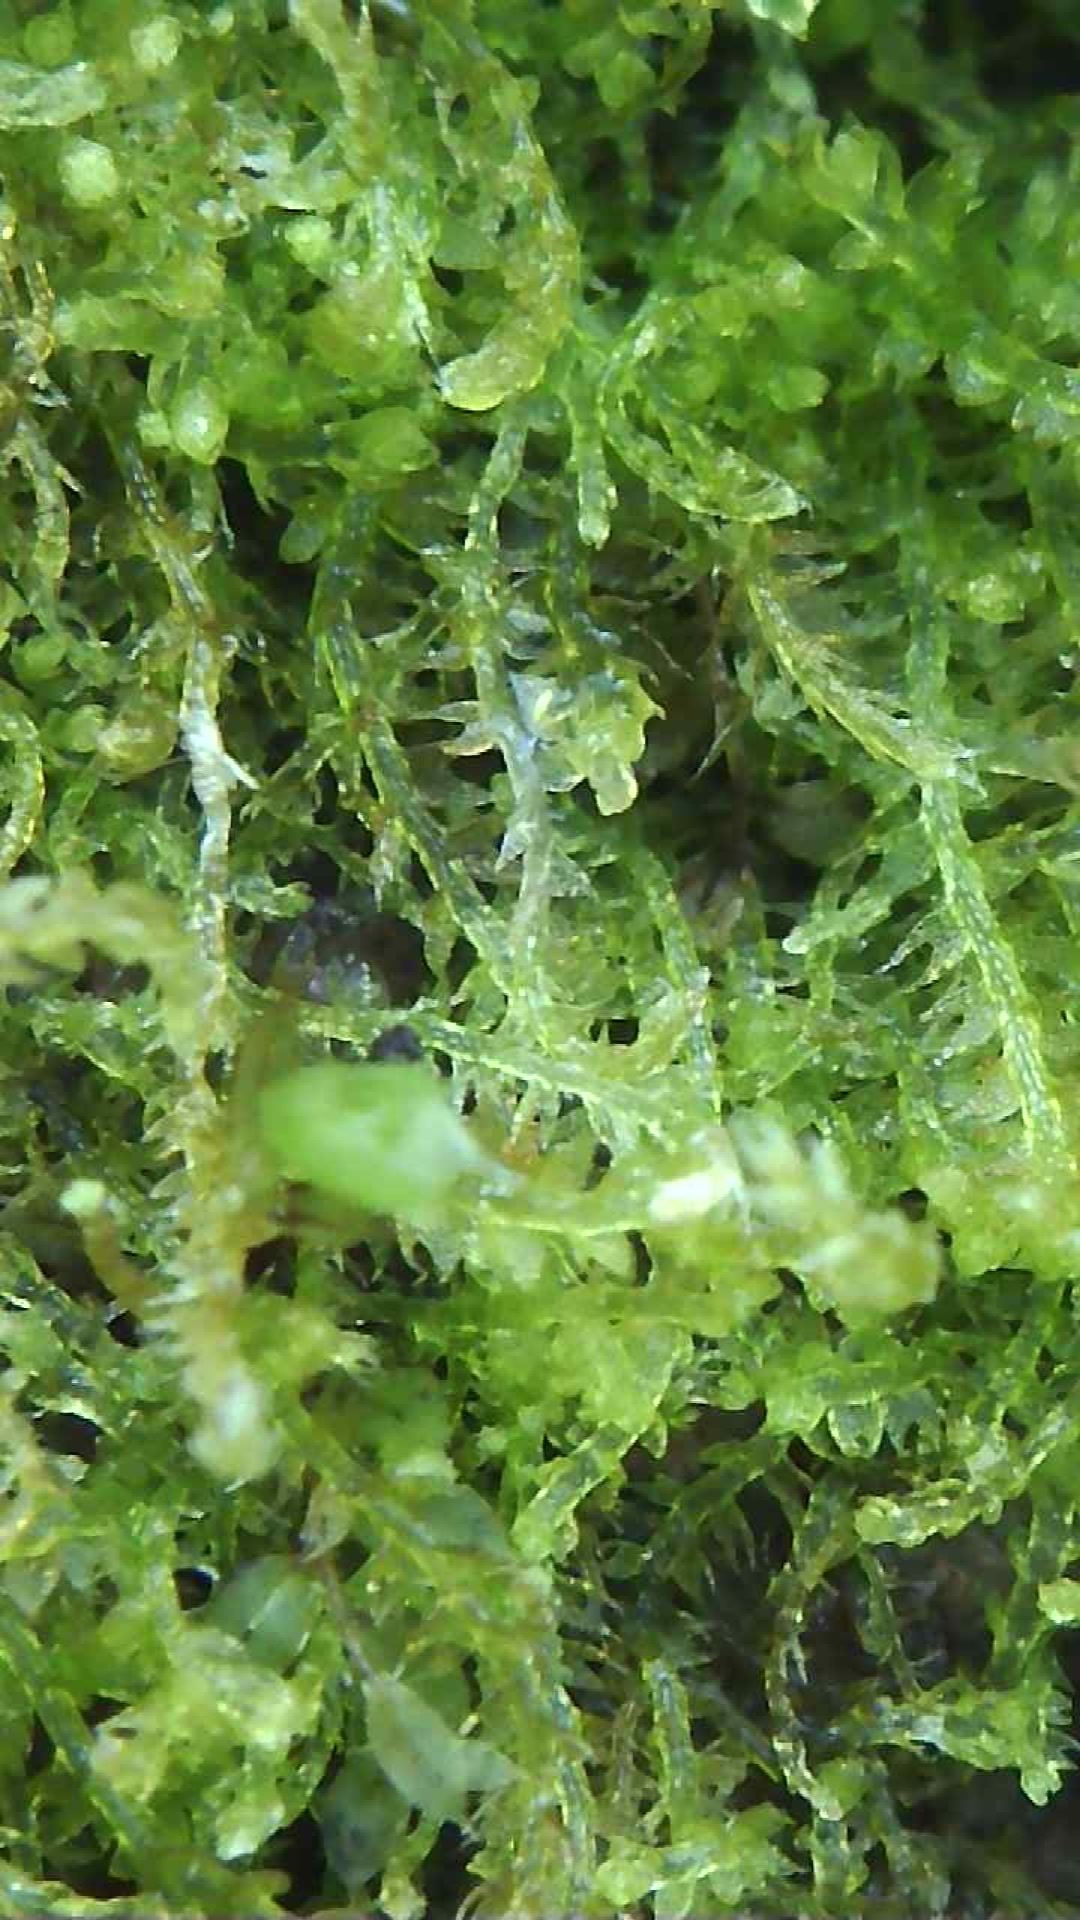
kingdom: Plantae
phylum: Marchantiophyta
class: Jungermanniopsida
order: Jungermanniales
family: Cephaloziaceae
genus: Cephalozia
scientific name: Cephalozia bicuspidata
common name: Two-horned pincerwort
